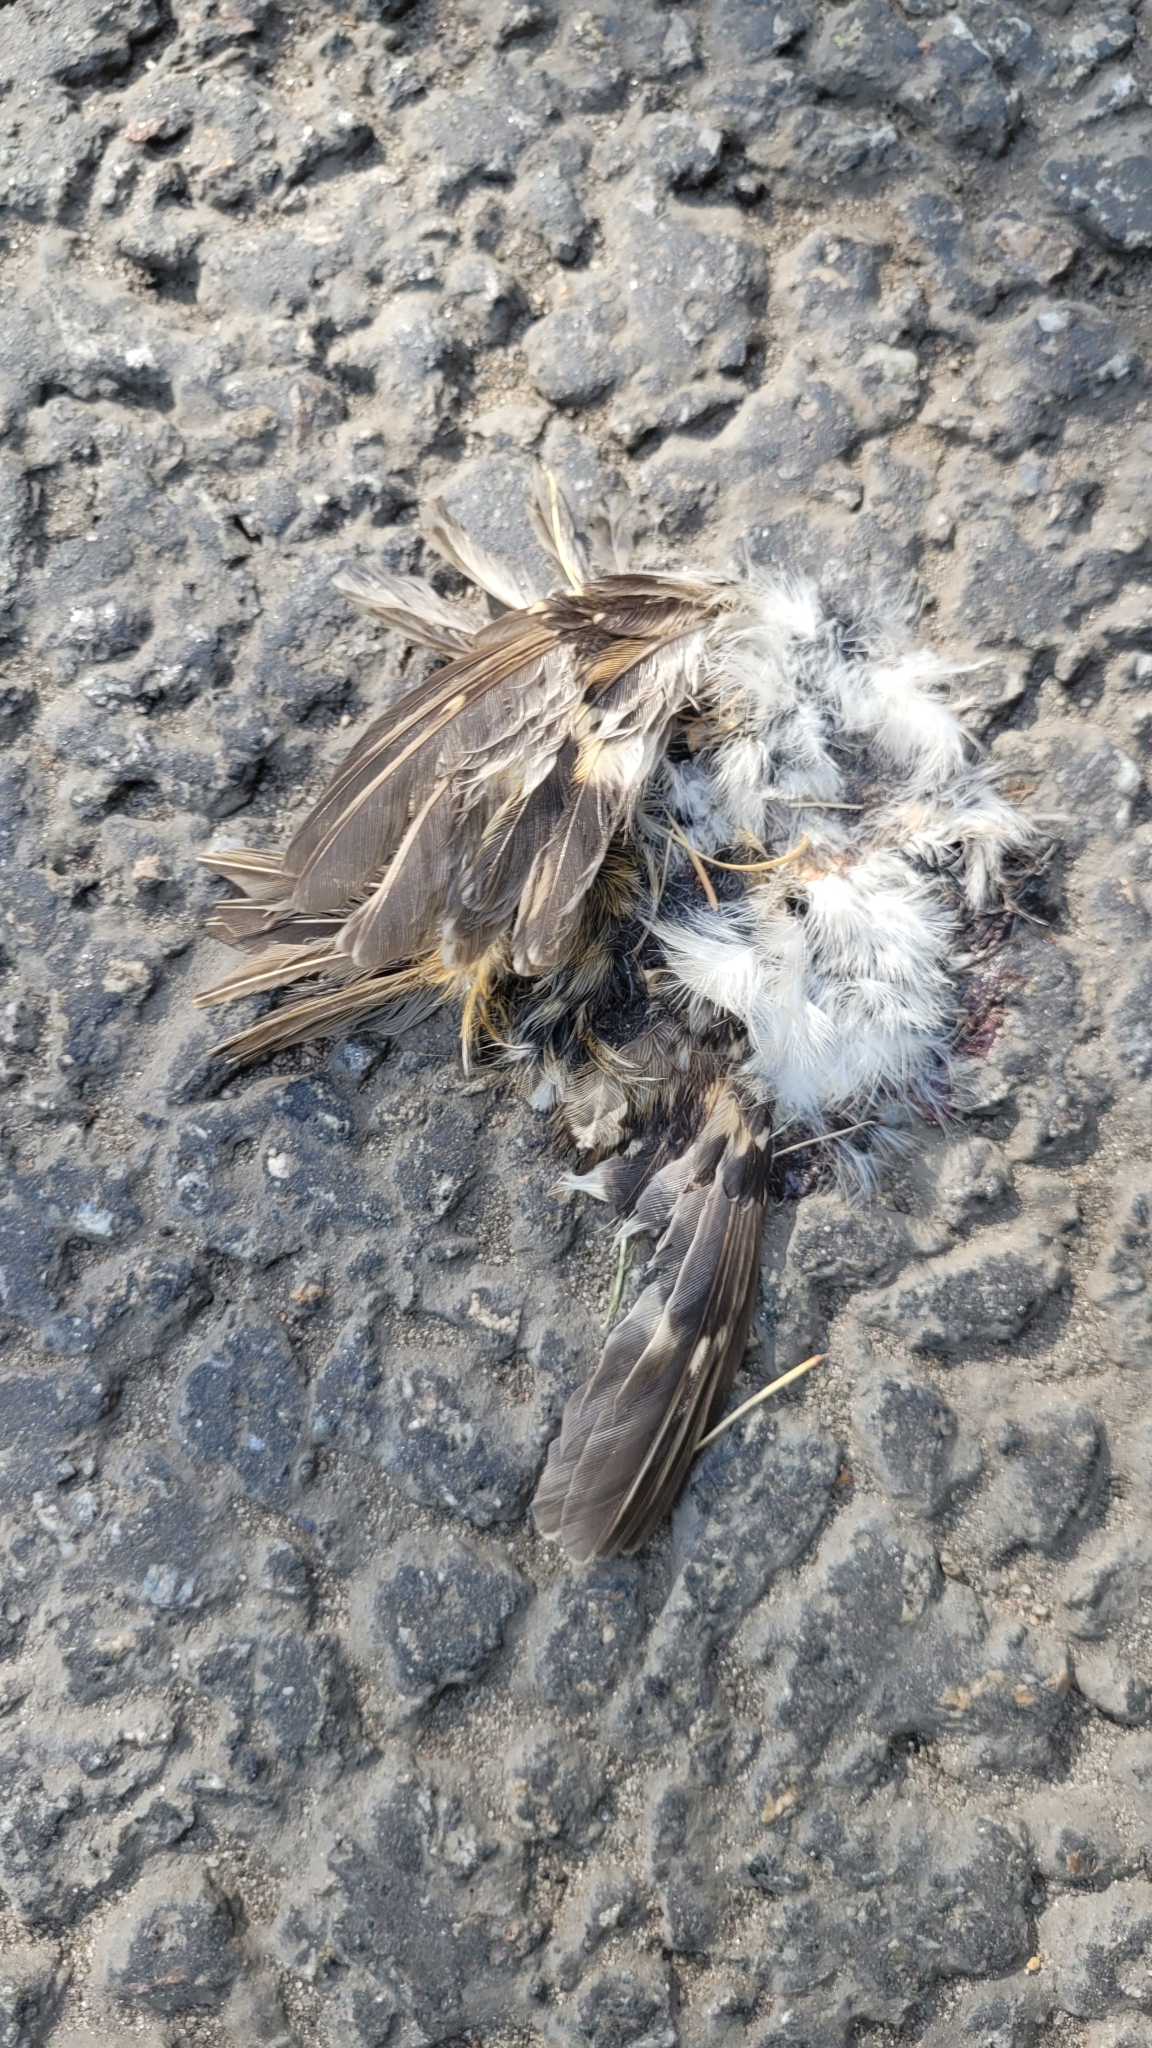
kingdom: Animalia
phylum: Chordata
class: Aves
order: Passeriformes
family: Certhiidae
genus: Certhia
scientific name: Certhia familiaris
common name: Eurasian treecreeper
